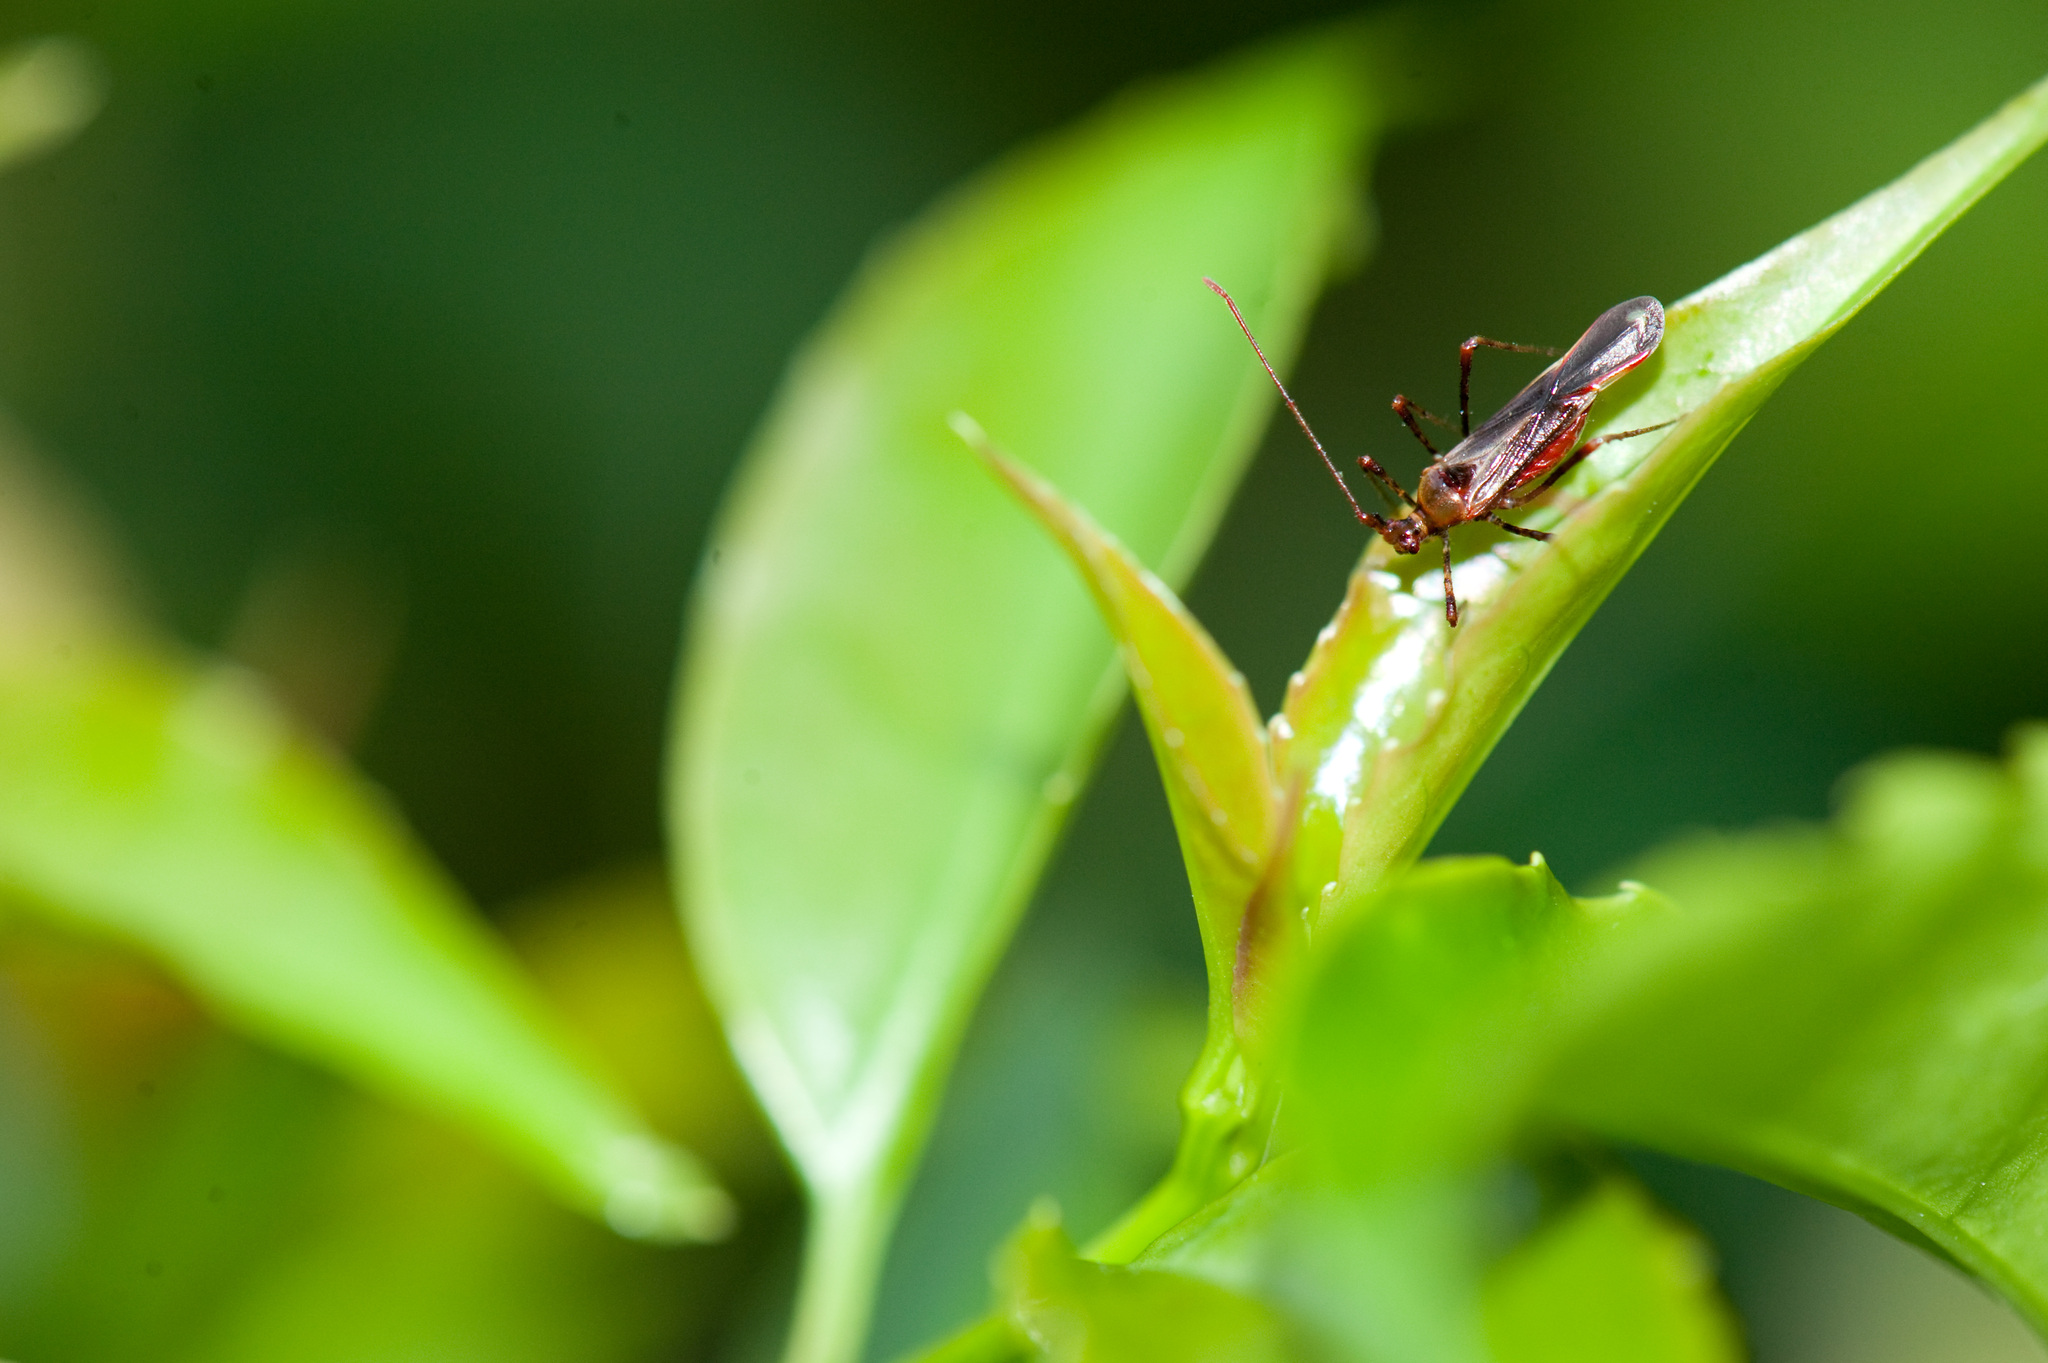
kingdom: Animalia
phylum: Arthropoda
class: Insecta
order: Hemiptera
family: Miridae
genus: Helopeltis
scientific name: Helopeltis cinchonae
